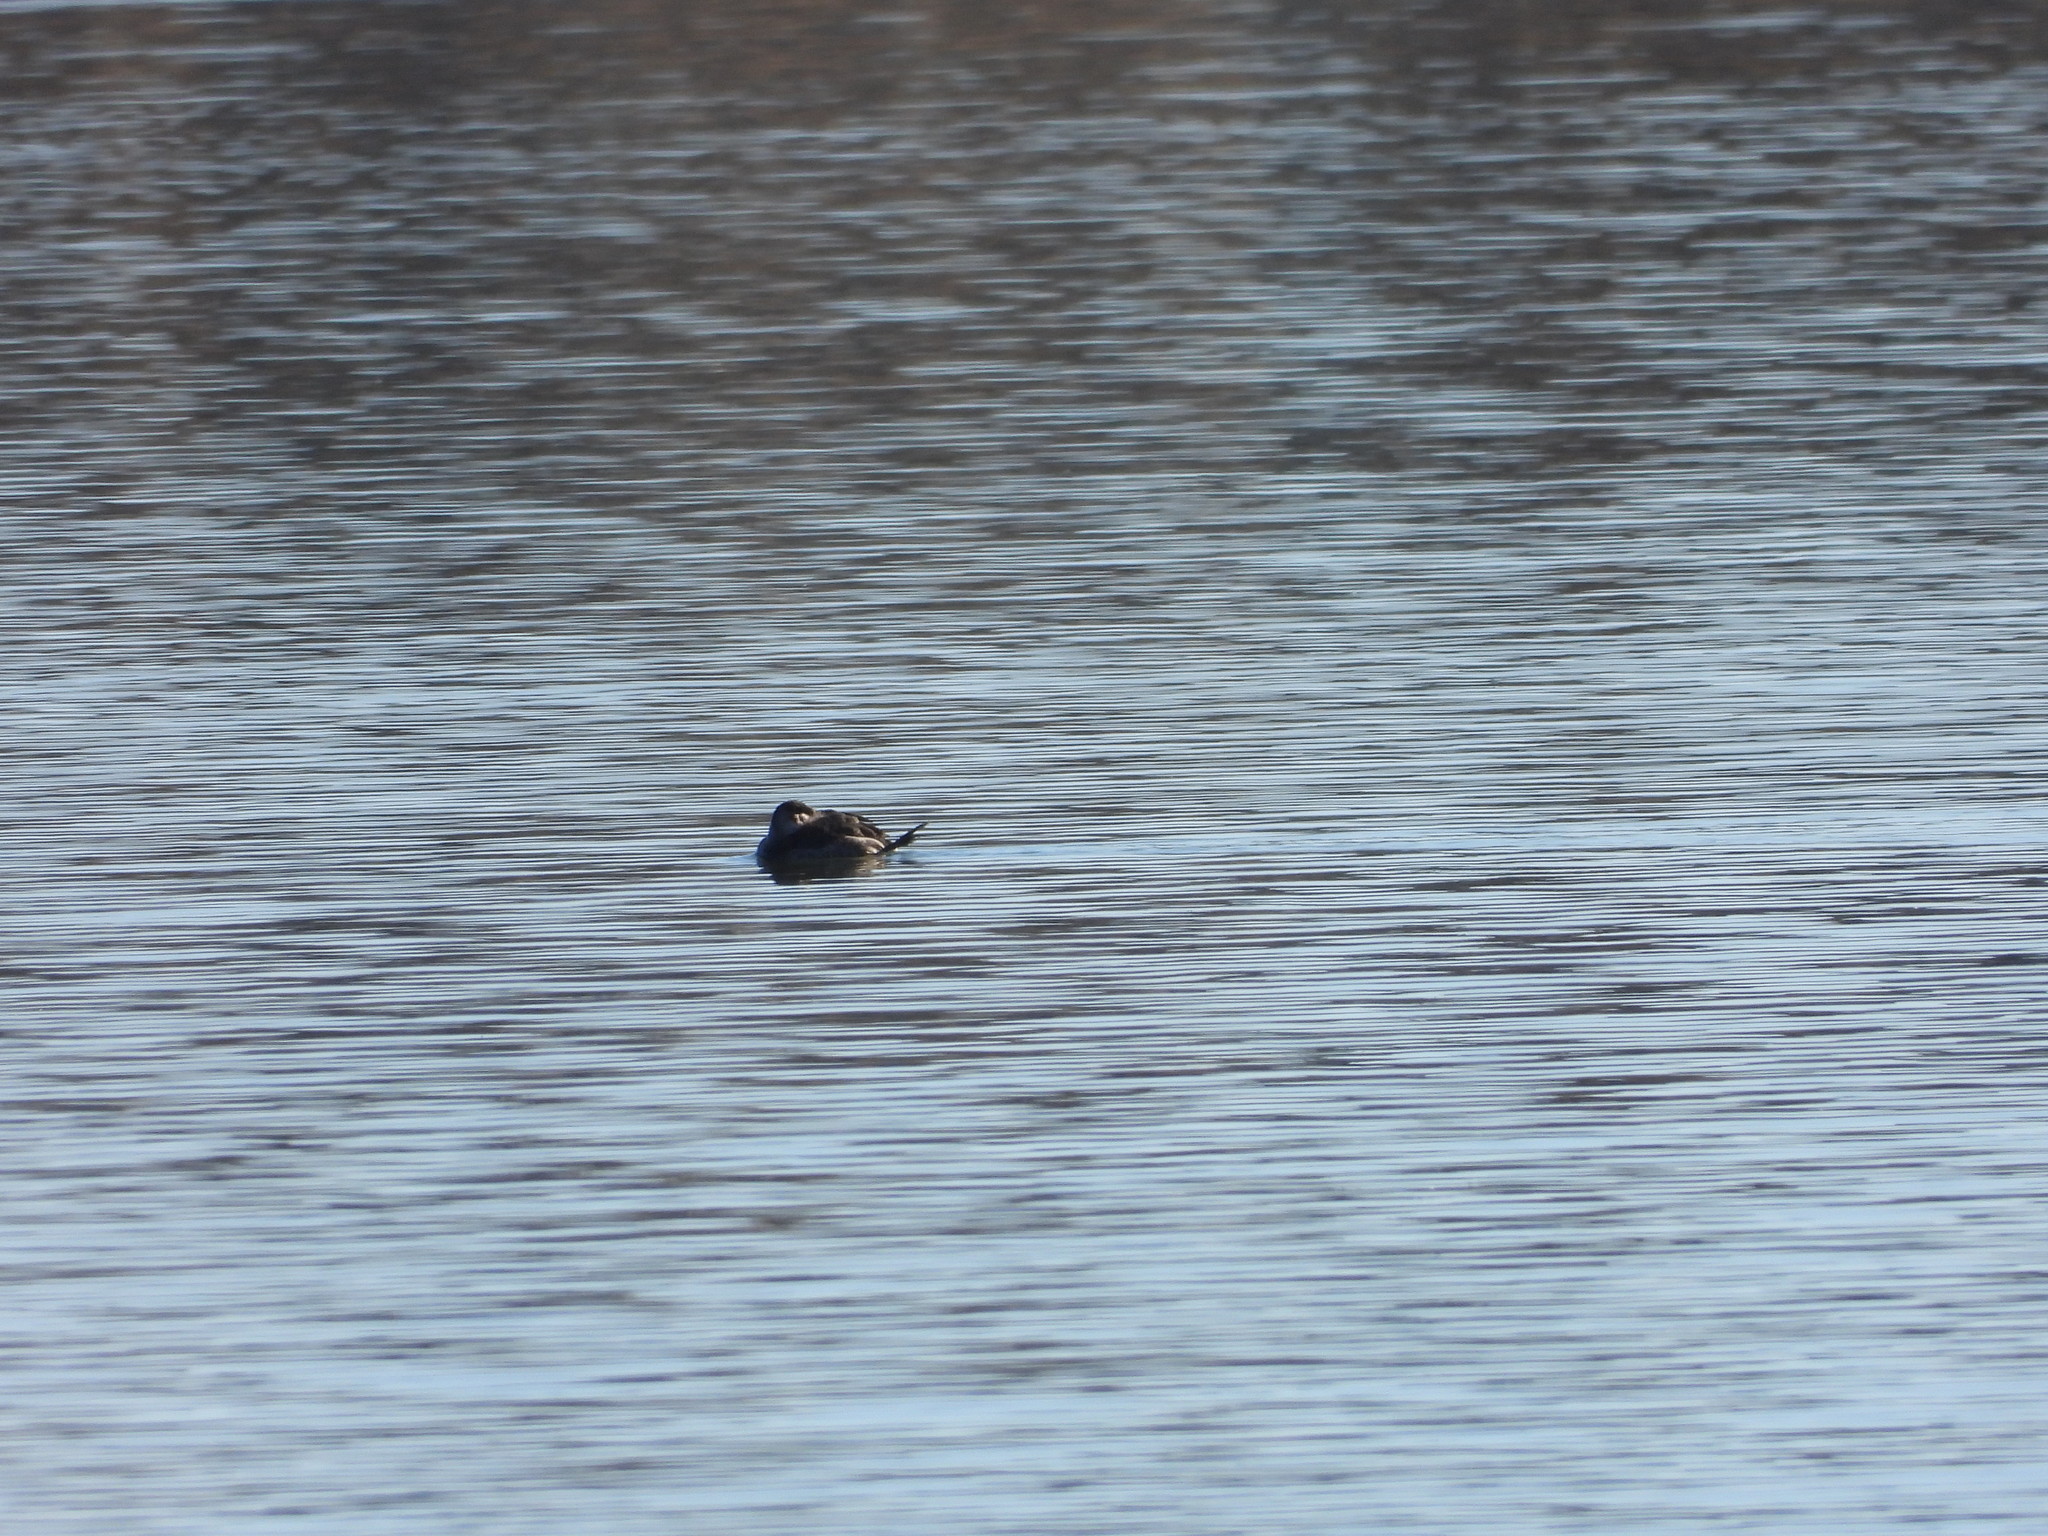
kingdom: Animalia
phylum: Chordata
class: Aves
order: Anseriformes
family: Anatidae
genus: Oxyura
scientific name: Oxyura jamaicensis
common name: Ruddy duck
